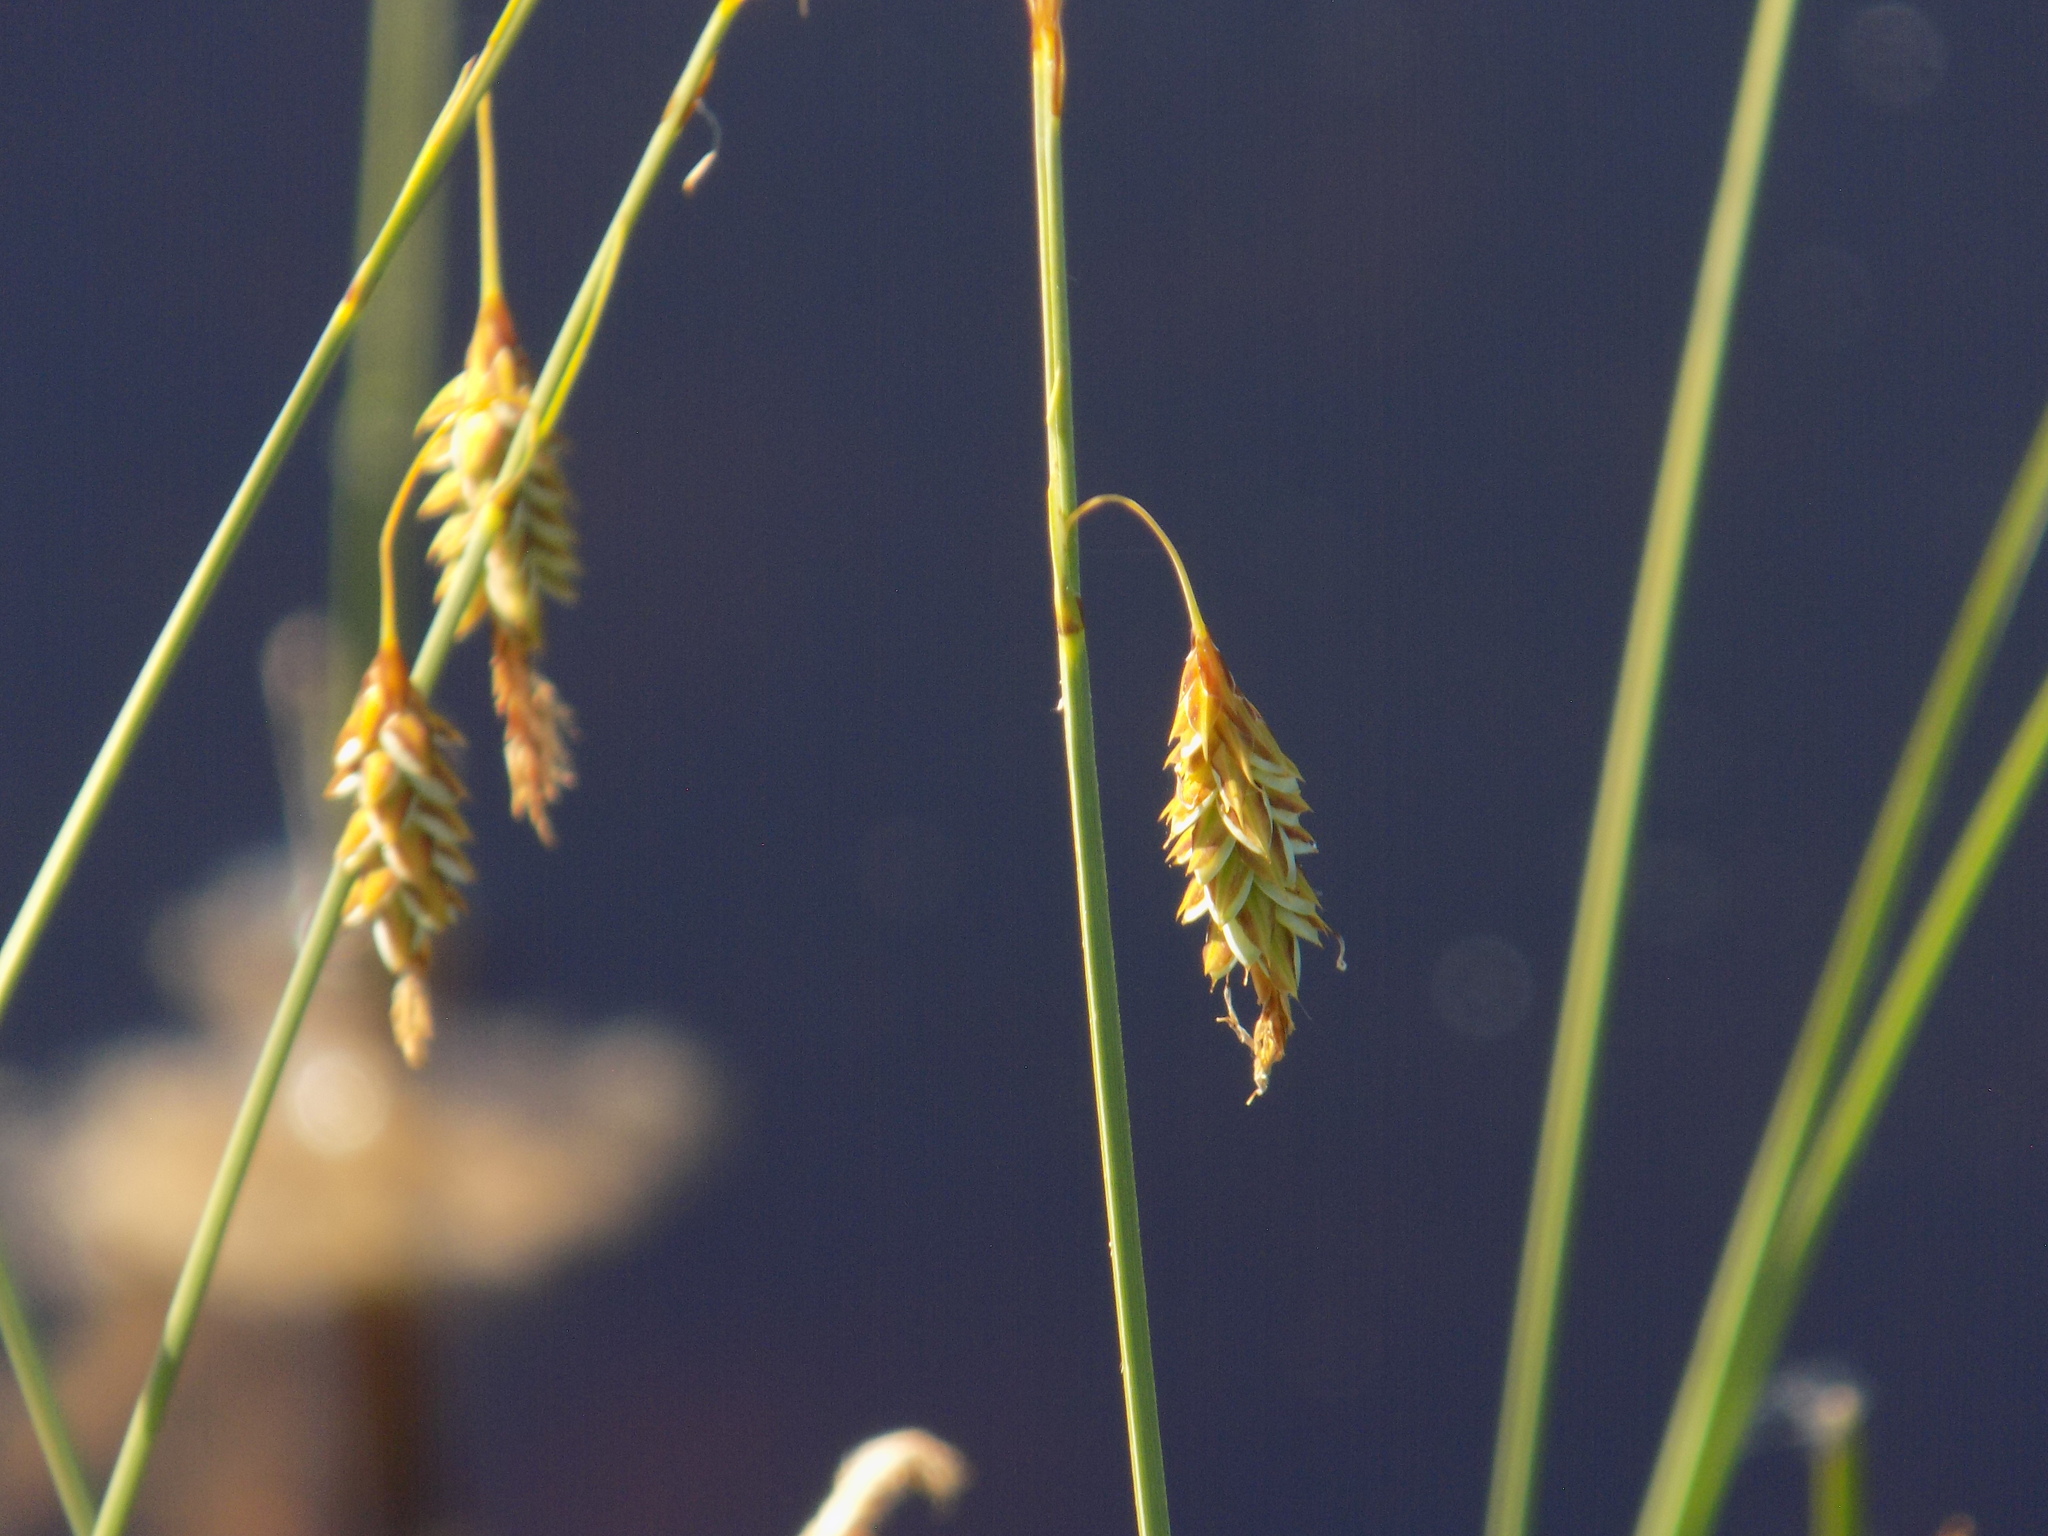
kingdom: Plantae
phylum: Tracheophyta
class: Liliopsida
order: Poales
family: Cyperaceae
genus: Carex
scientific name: Carex limosa
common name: Bog sedge
